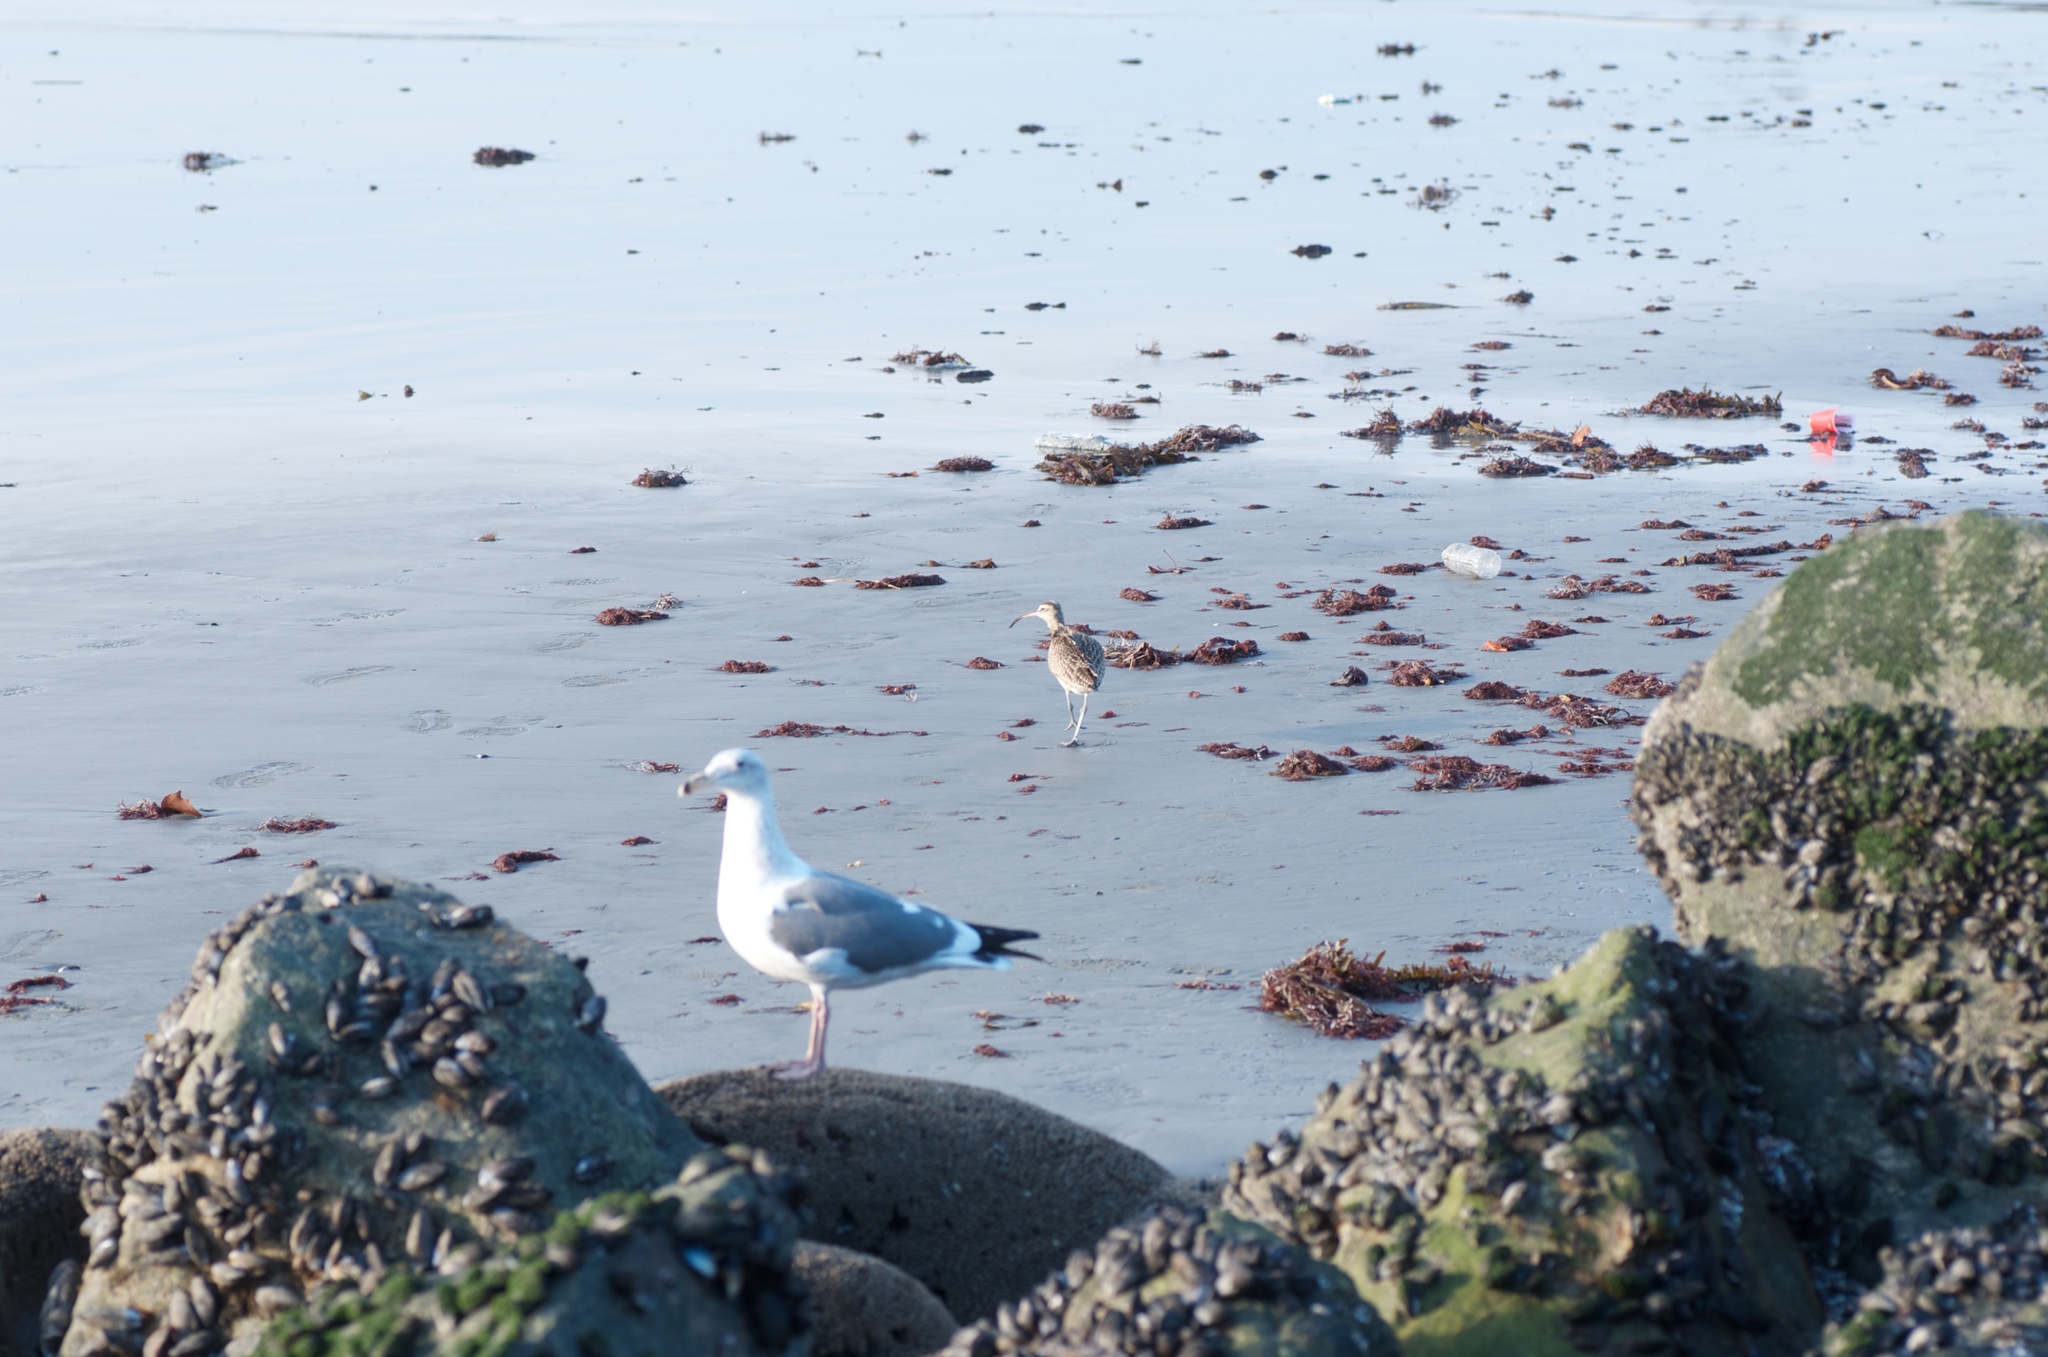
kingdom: Animalia
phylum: Chordata
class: Aves
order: Charadriiformes
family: Laridae
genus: Larus
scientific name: Larus delawarensis
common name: Ring-billed gull
